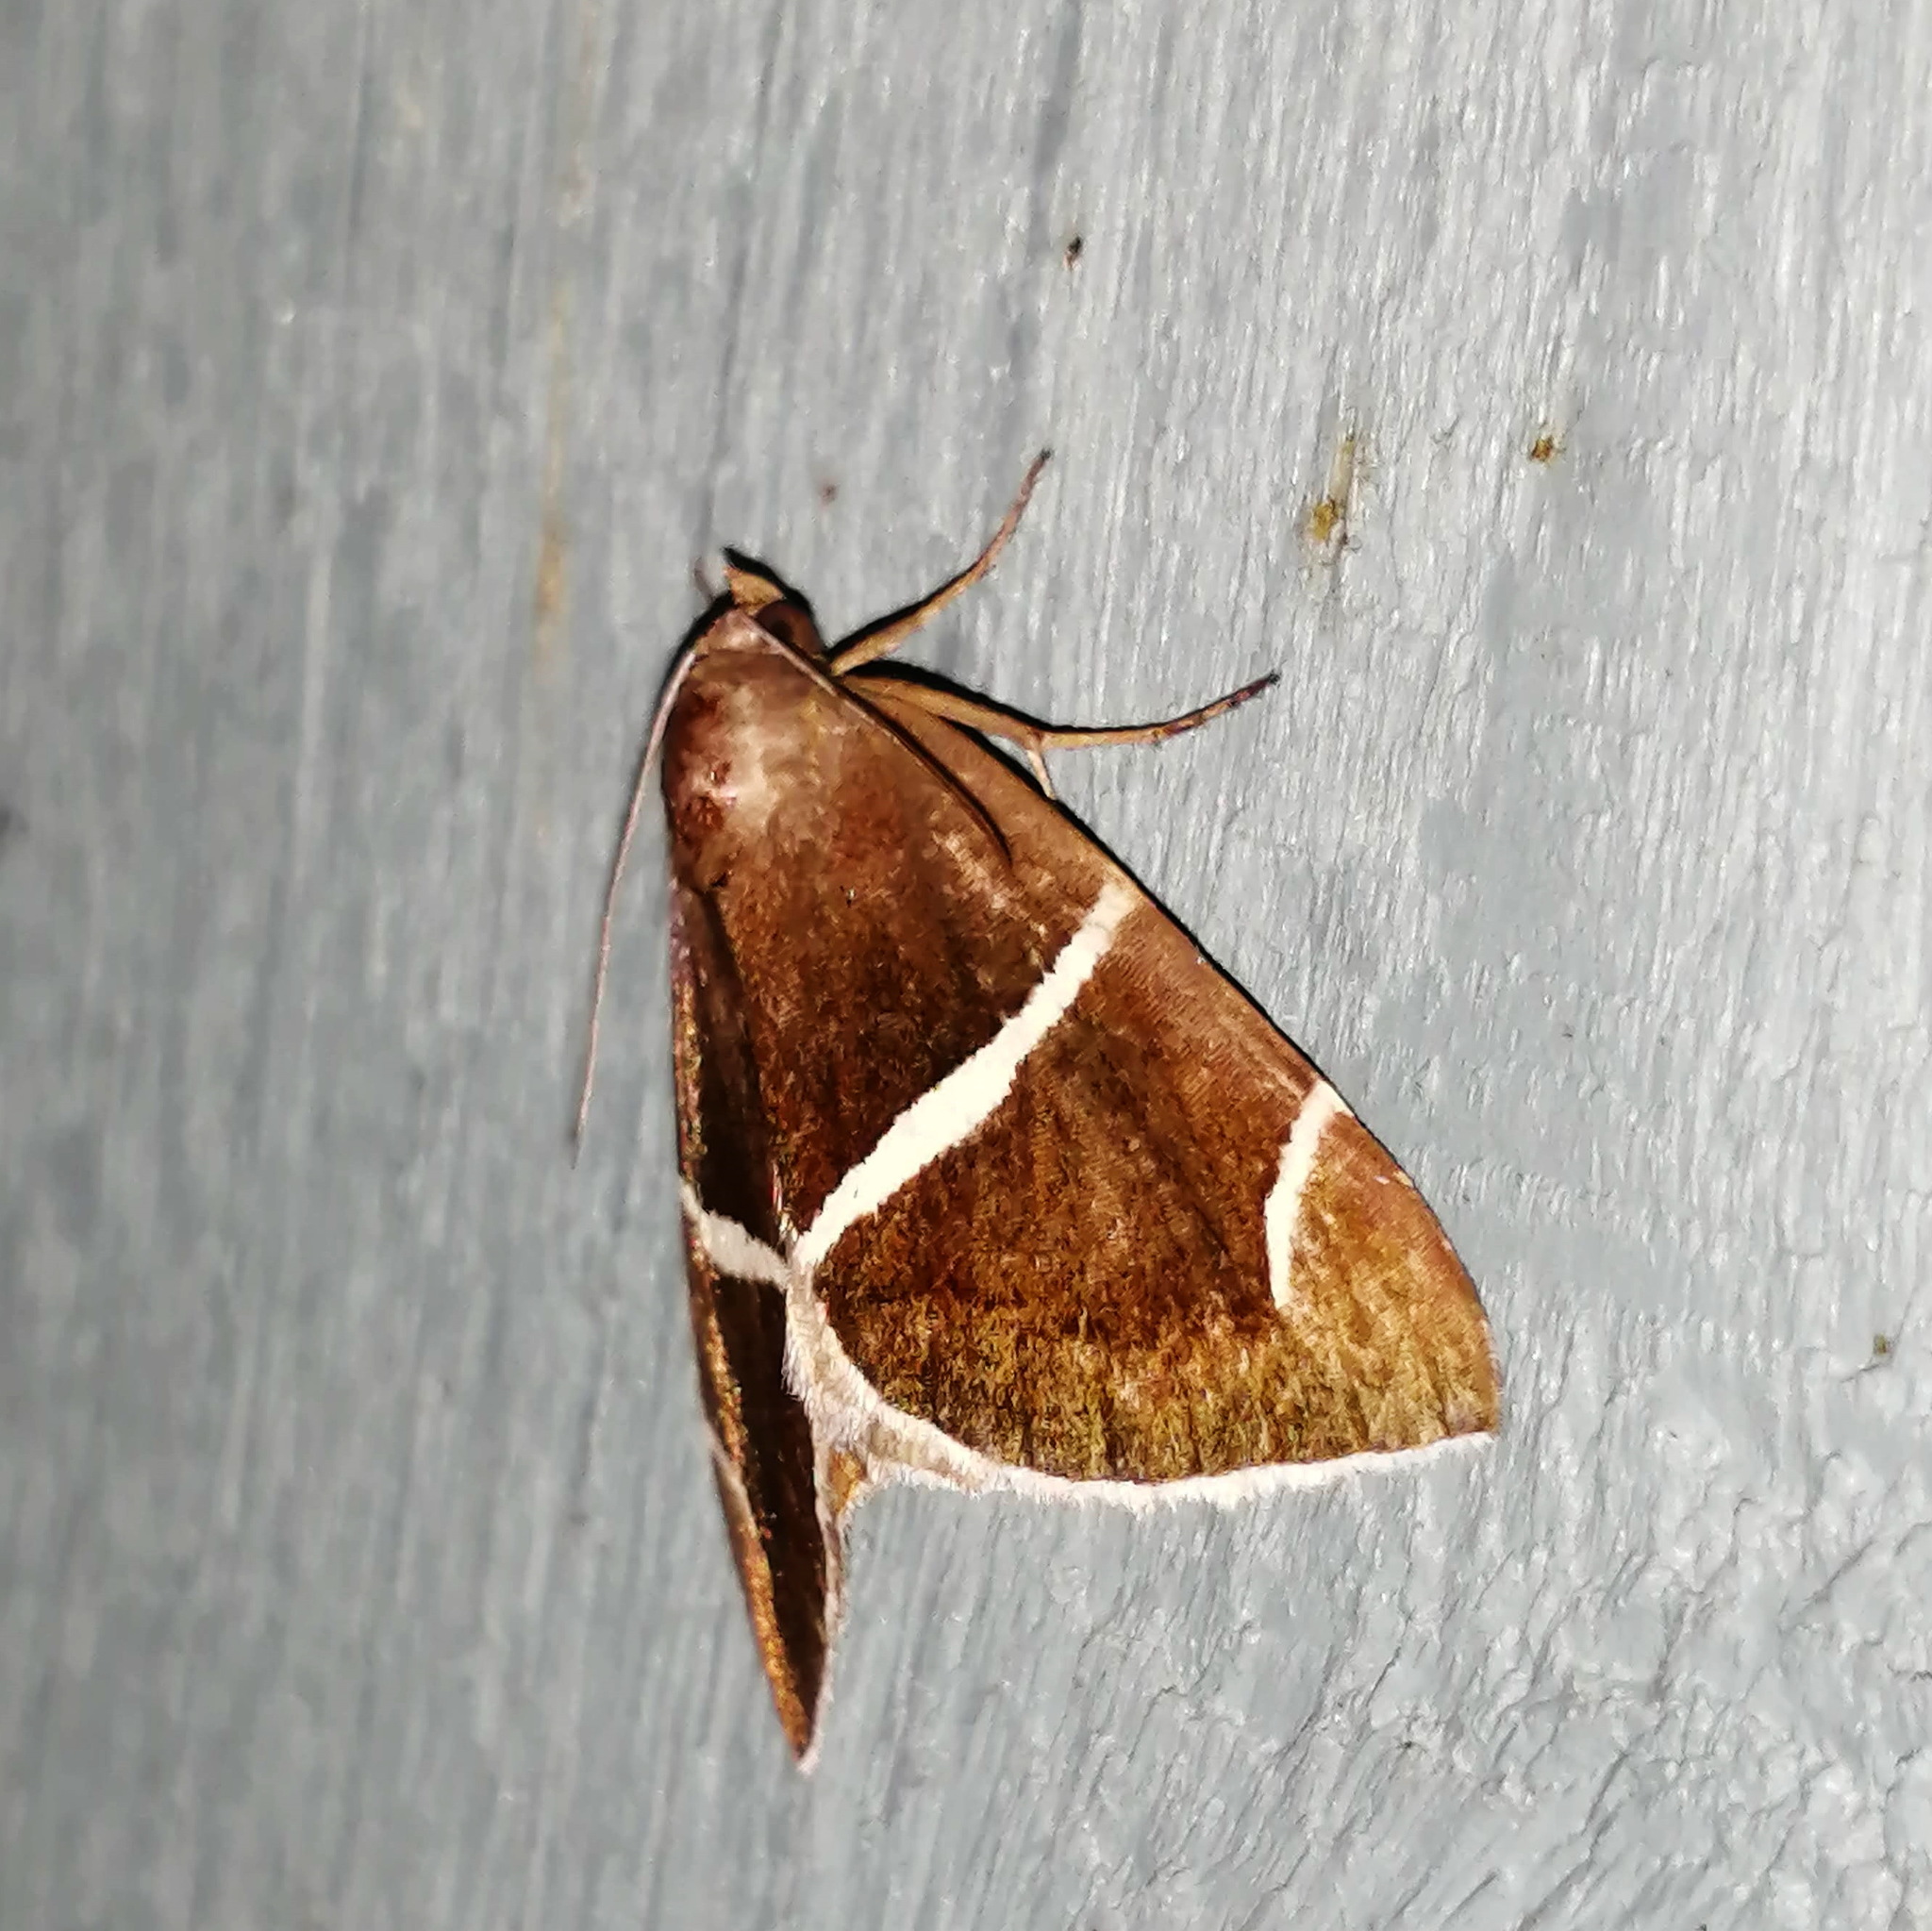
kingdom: Animalia
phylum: Arthropoda
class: Insecta
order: Lepidoptera
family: Erebidae
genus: Argyrostrotis
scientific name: Argyrostrotis anilis
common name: Short-lined chocolate
